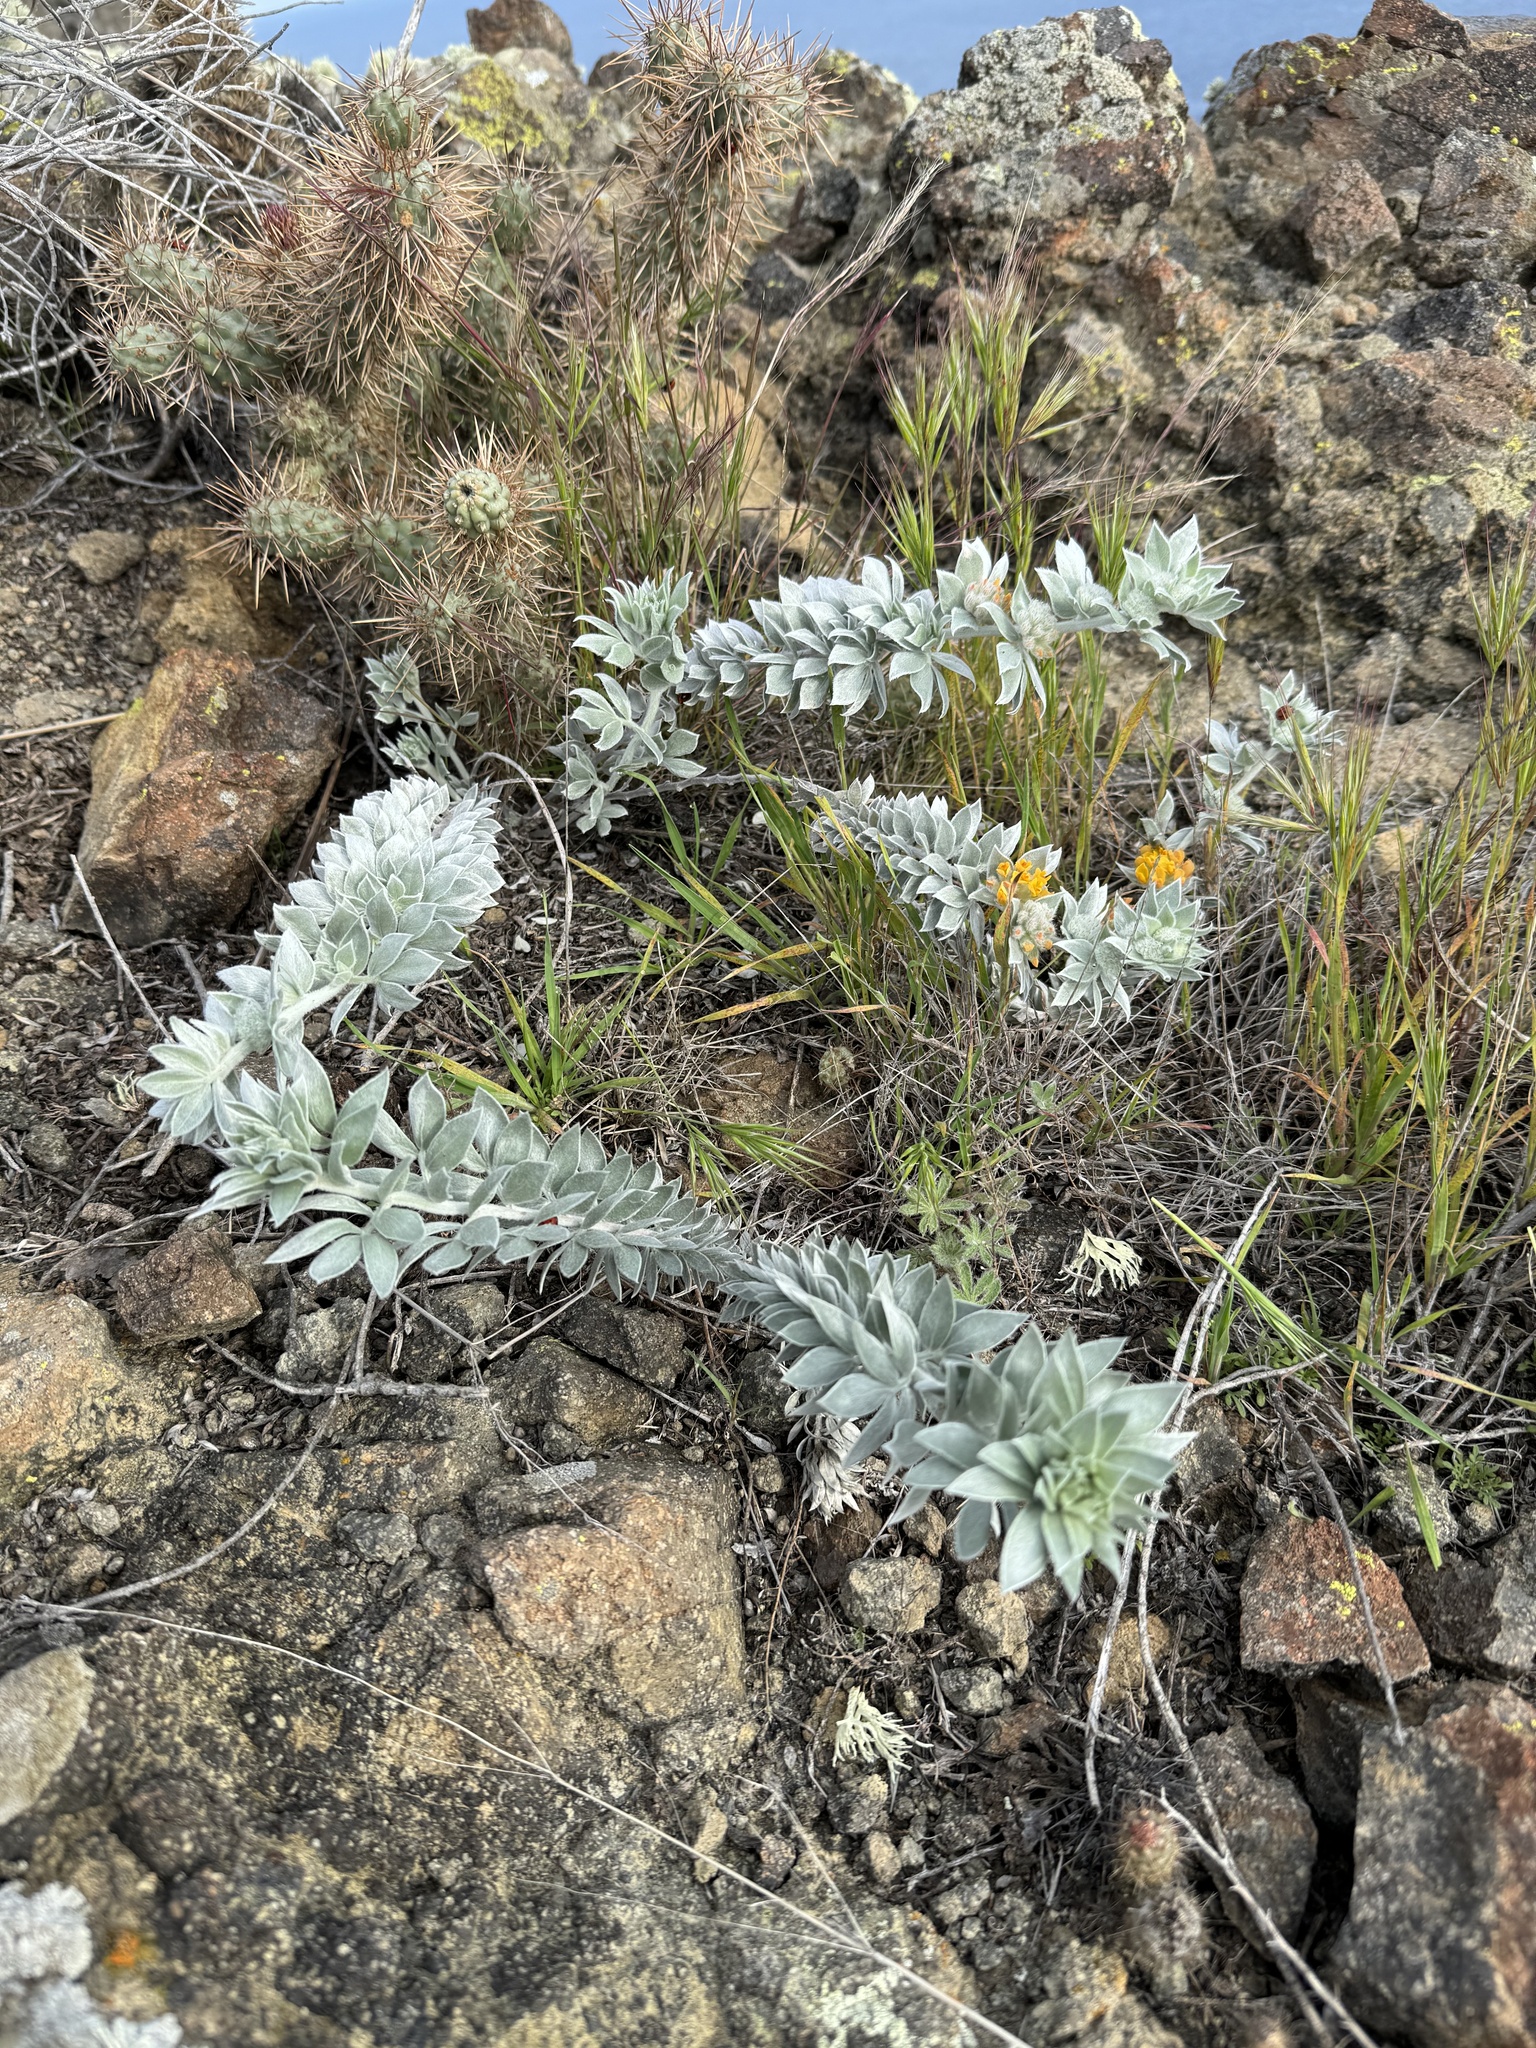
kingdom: Plantae
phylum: Tracheophyta
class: Magnoliopsida
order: Fabales
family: Fabaceae
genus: Acmispon
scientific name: Acmispon argophyllus
